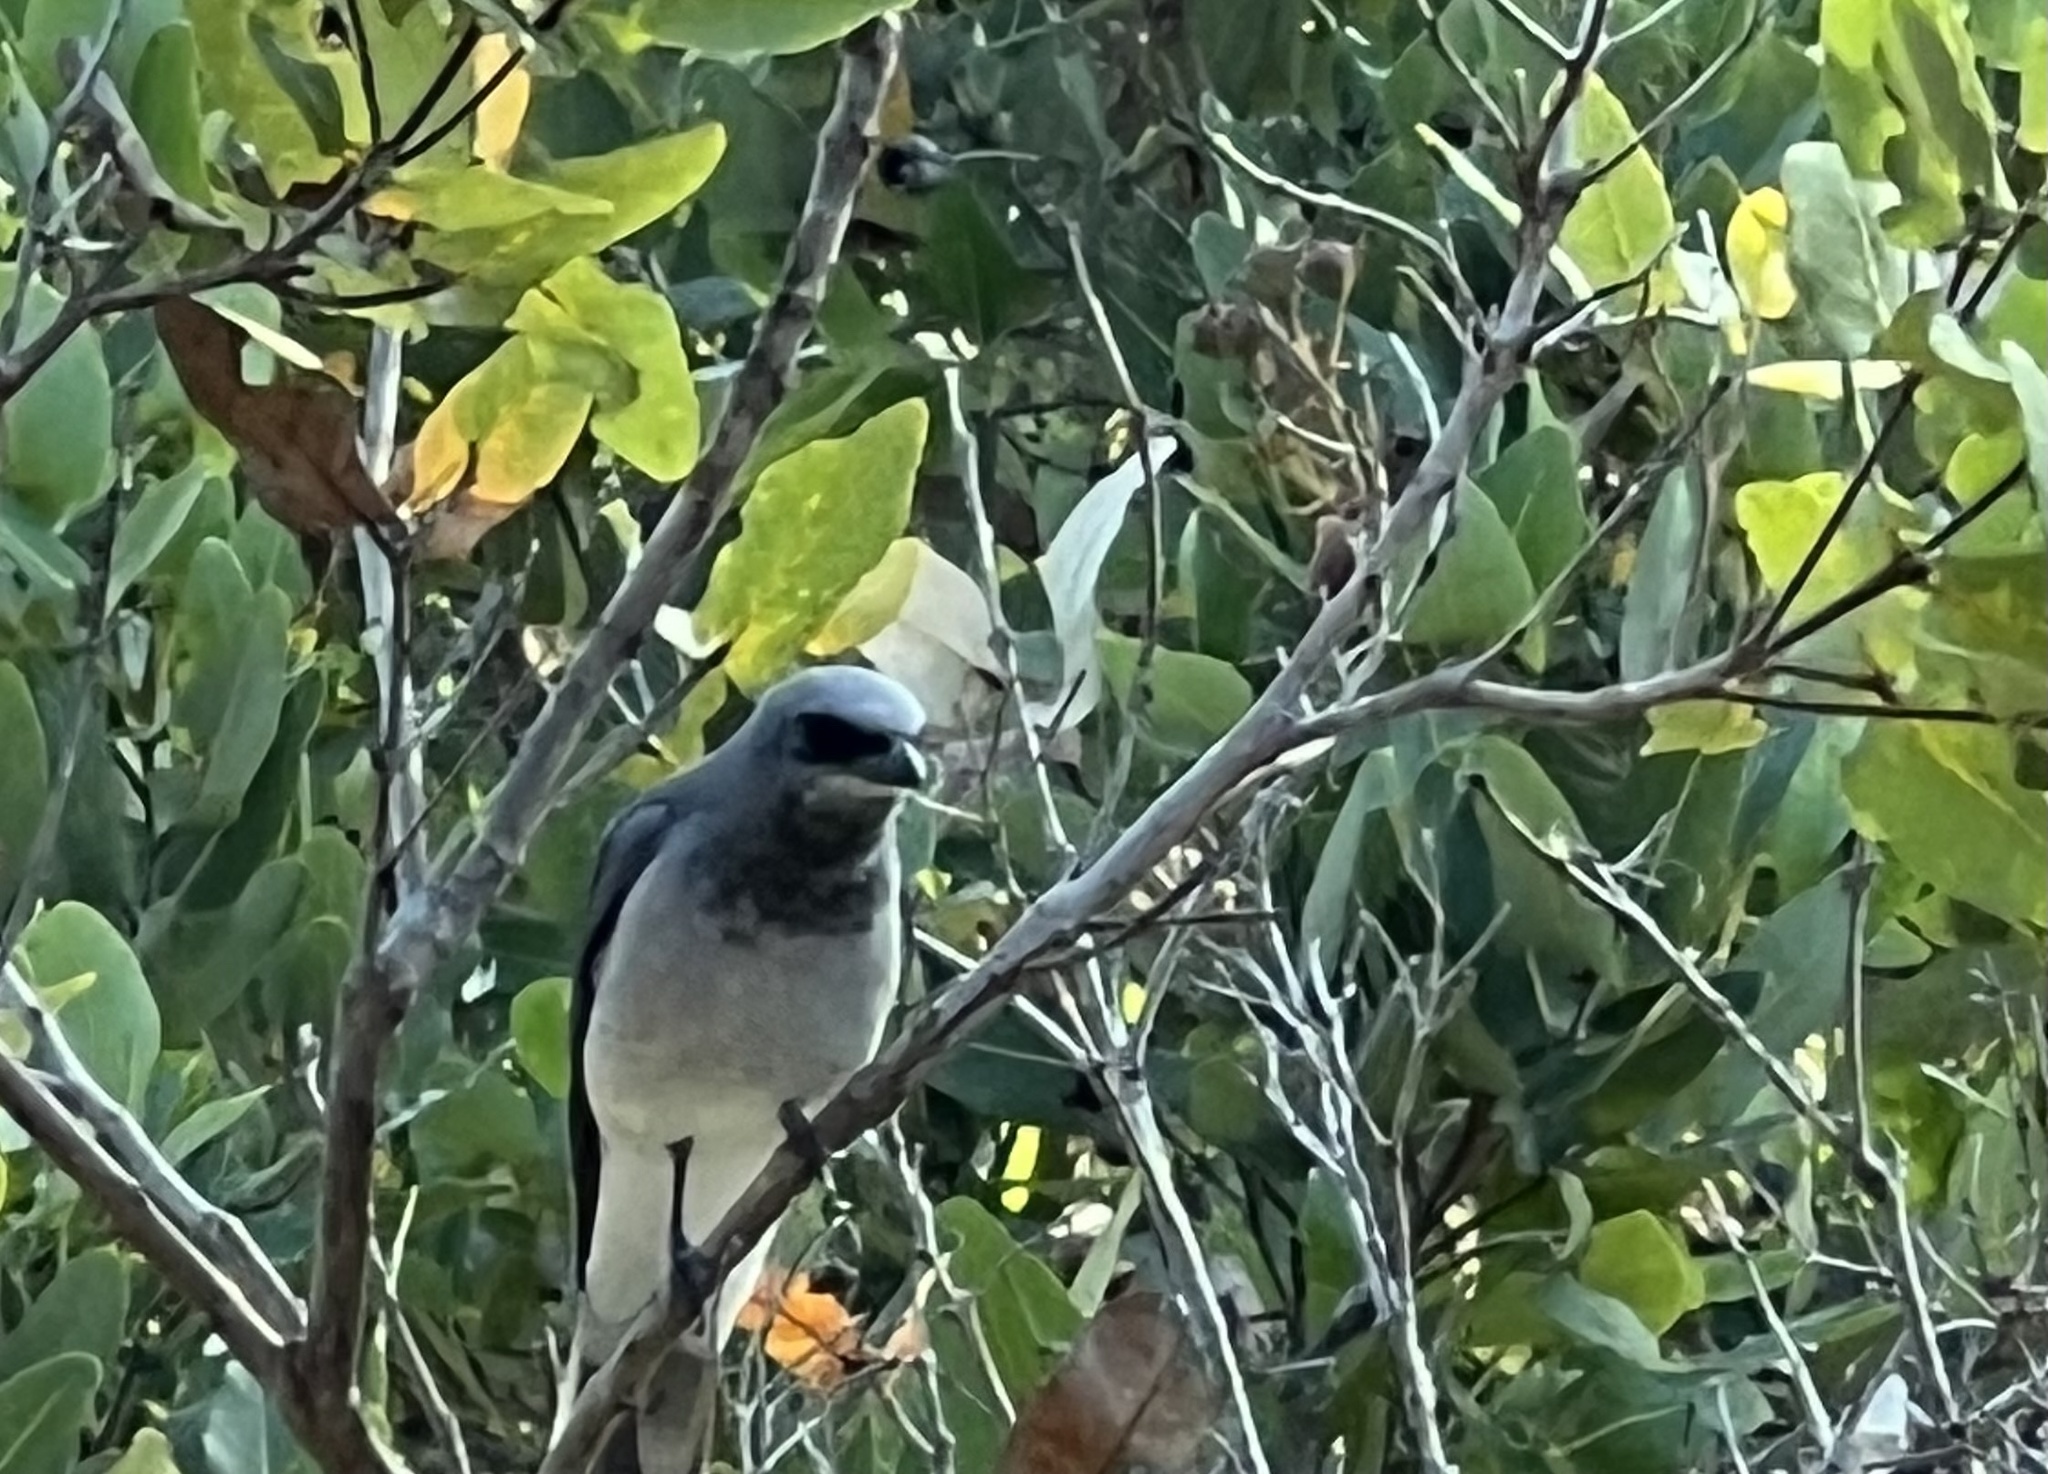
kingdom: Animalia
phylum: Chordata
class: Aves
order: Passeriformes
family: Campephagidae
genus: Coracina
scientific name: Coracina novaehollandiae
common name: Black-faced cuckooshrike
